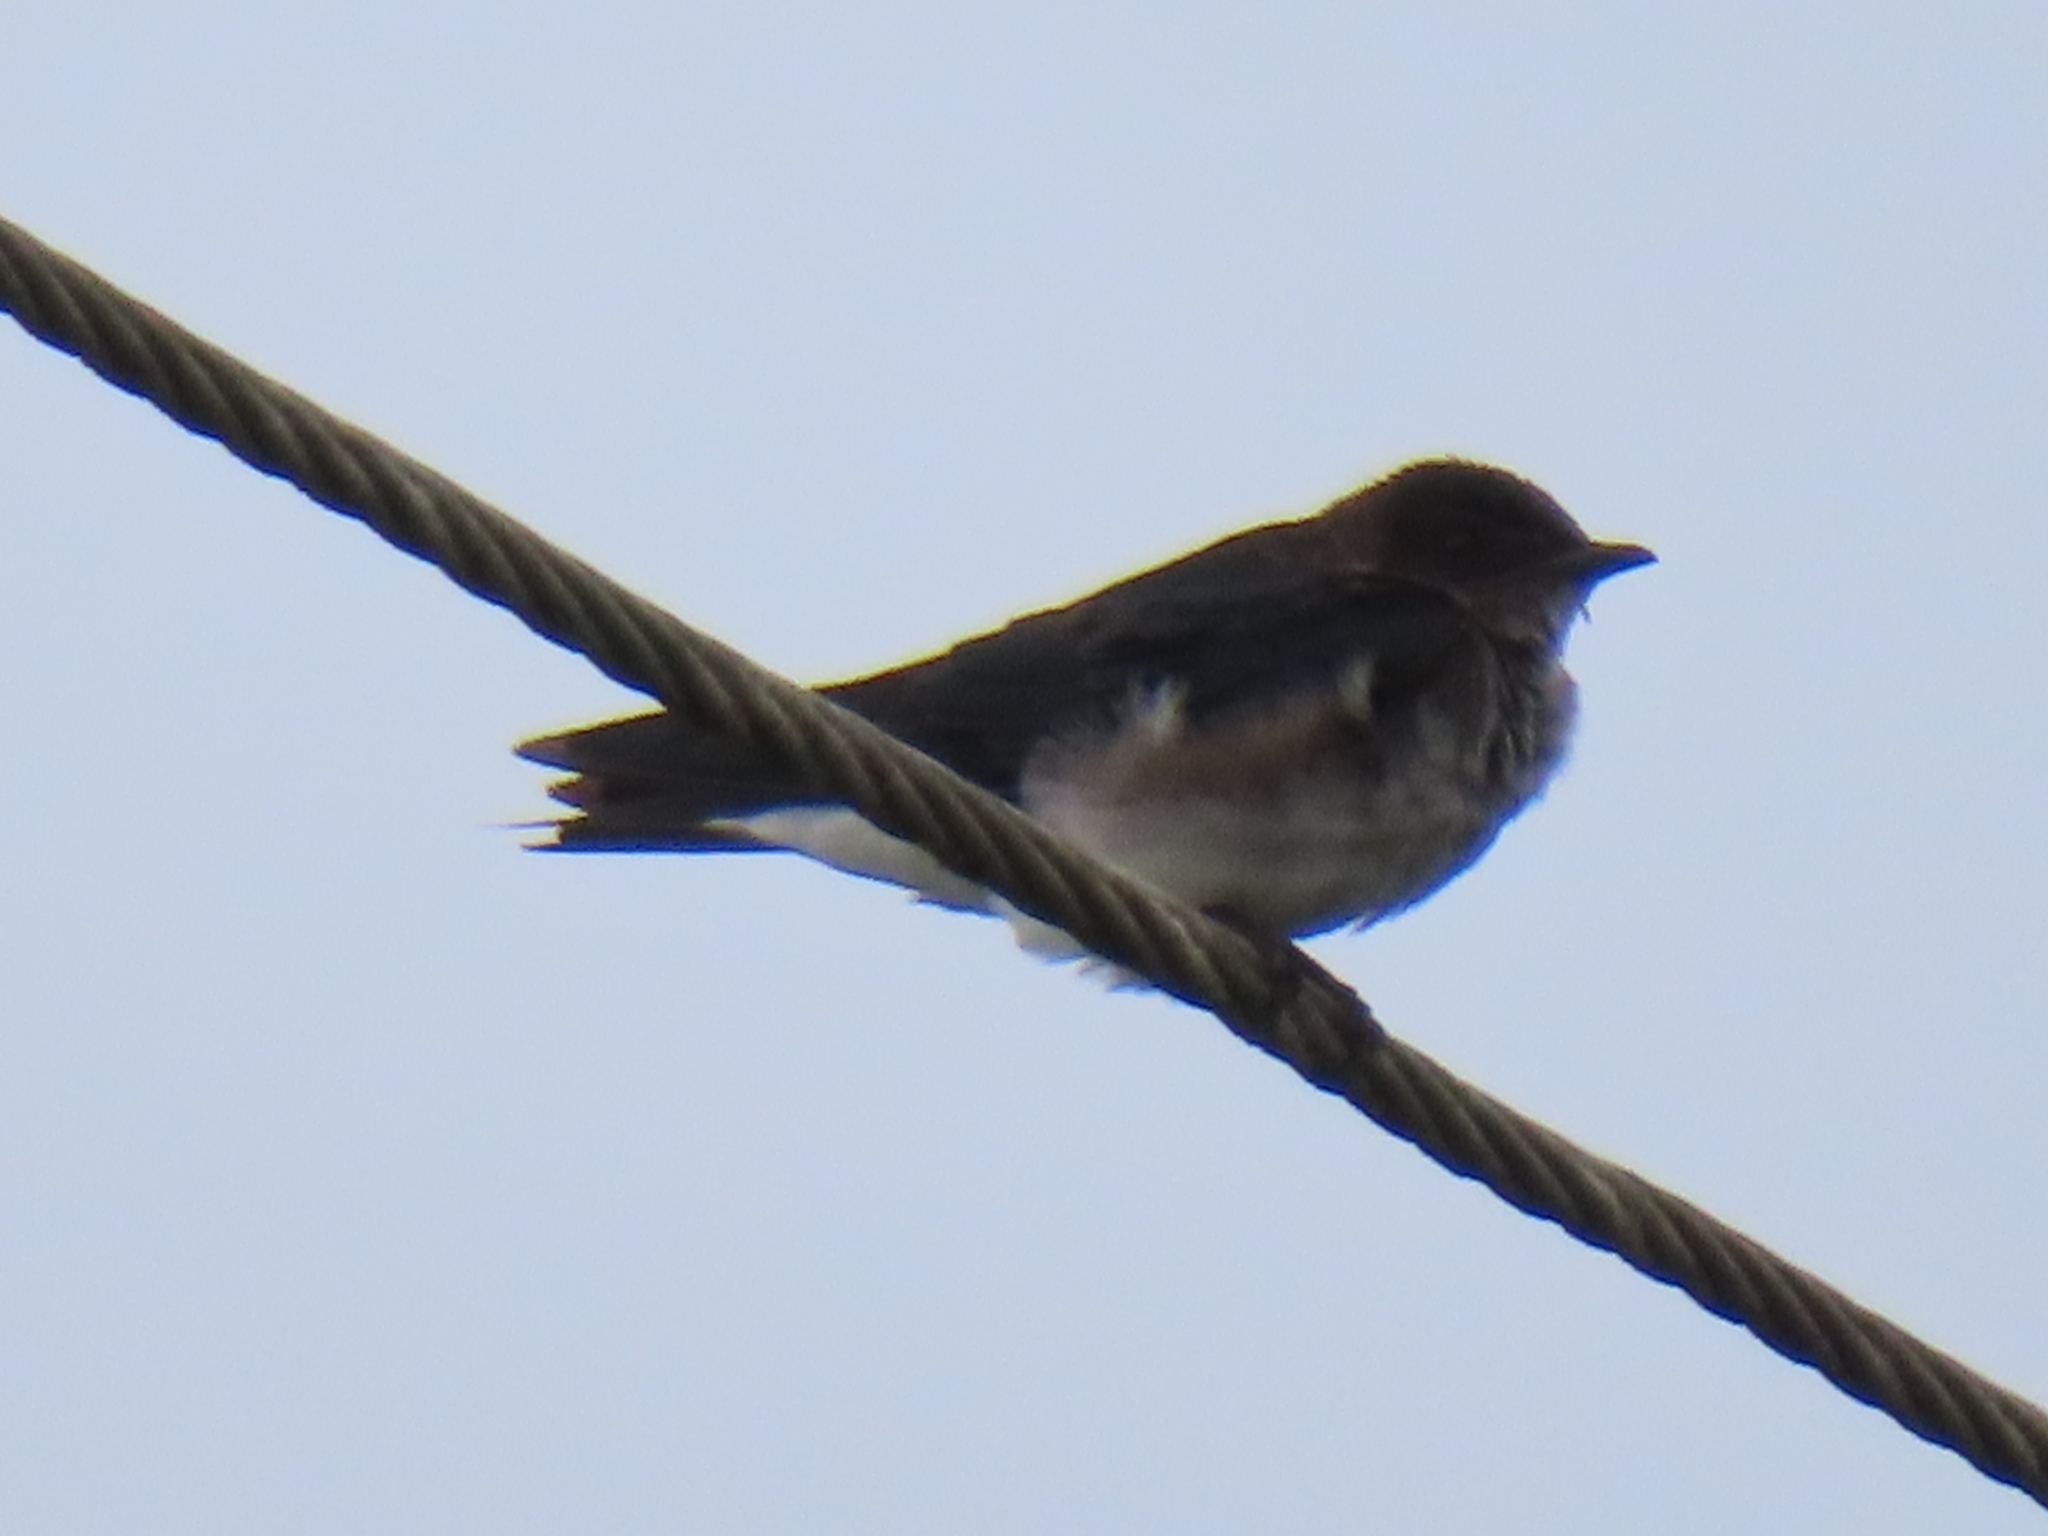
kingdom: Animalia
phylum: Chordata
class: Aves
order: Passeriformes
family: Hirundinidae
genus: Progne
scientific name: Progne chalybea
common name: Grey-breasted martin
